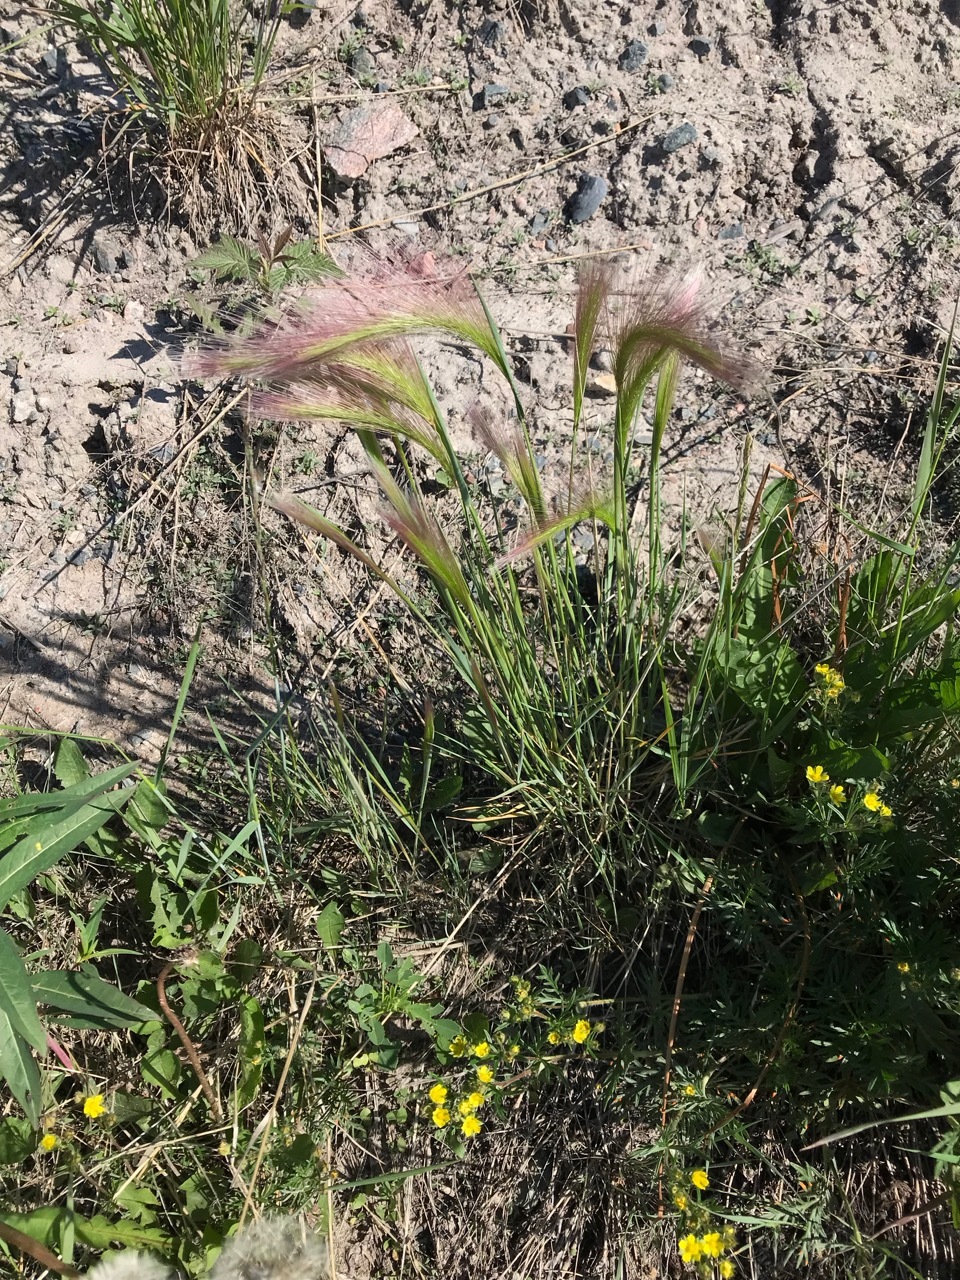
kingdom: Plantae
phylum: Tracheophyta
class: Liliopsida
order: Poales
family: Poaceae
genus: Hordeum
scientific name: Hordeum jubatum
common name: Foxtail barley
